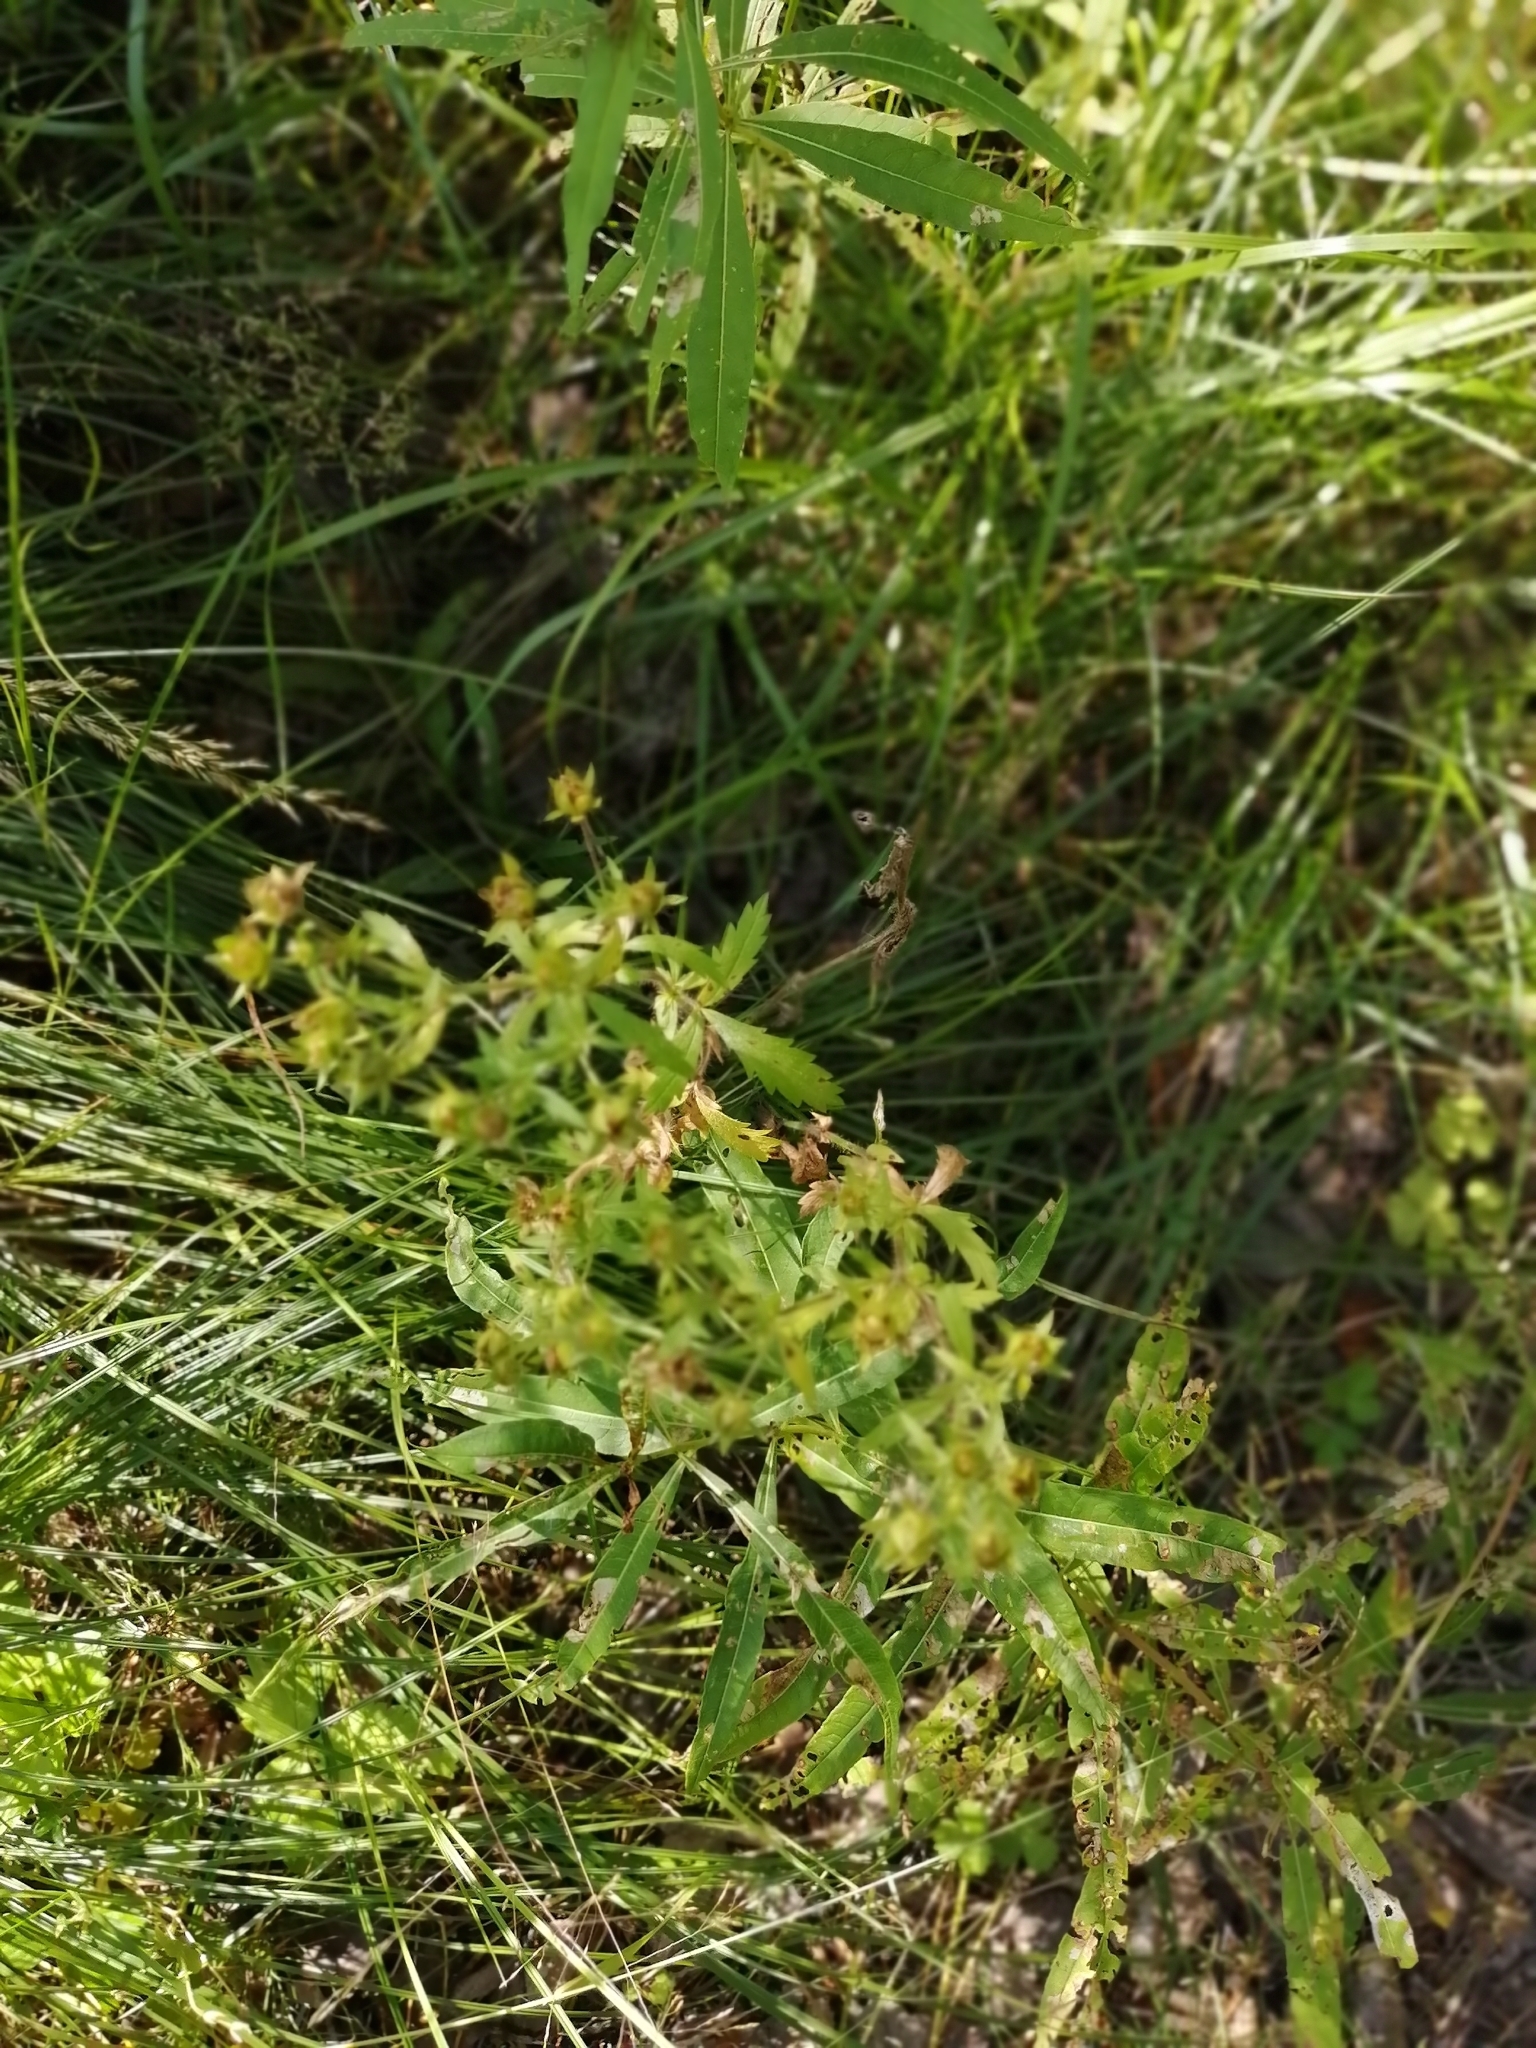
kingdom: Plantae
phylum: Tracheophyta
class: Magnoliopsida
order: Rosales
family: Rosaceae
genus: Potentilla
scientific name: Potentilla norvegica
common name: Ternate-leaved cinquefoil
